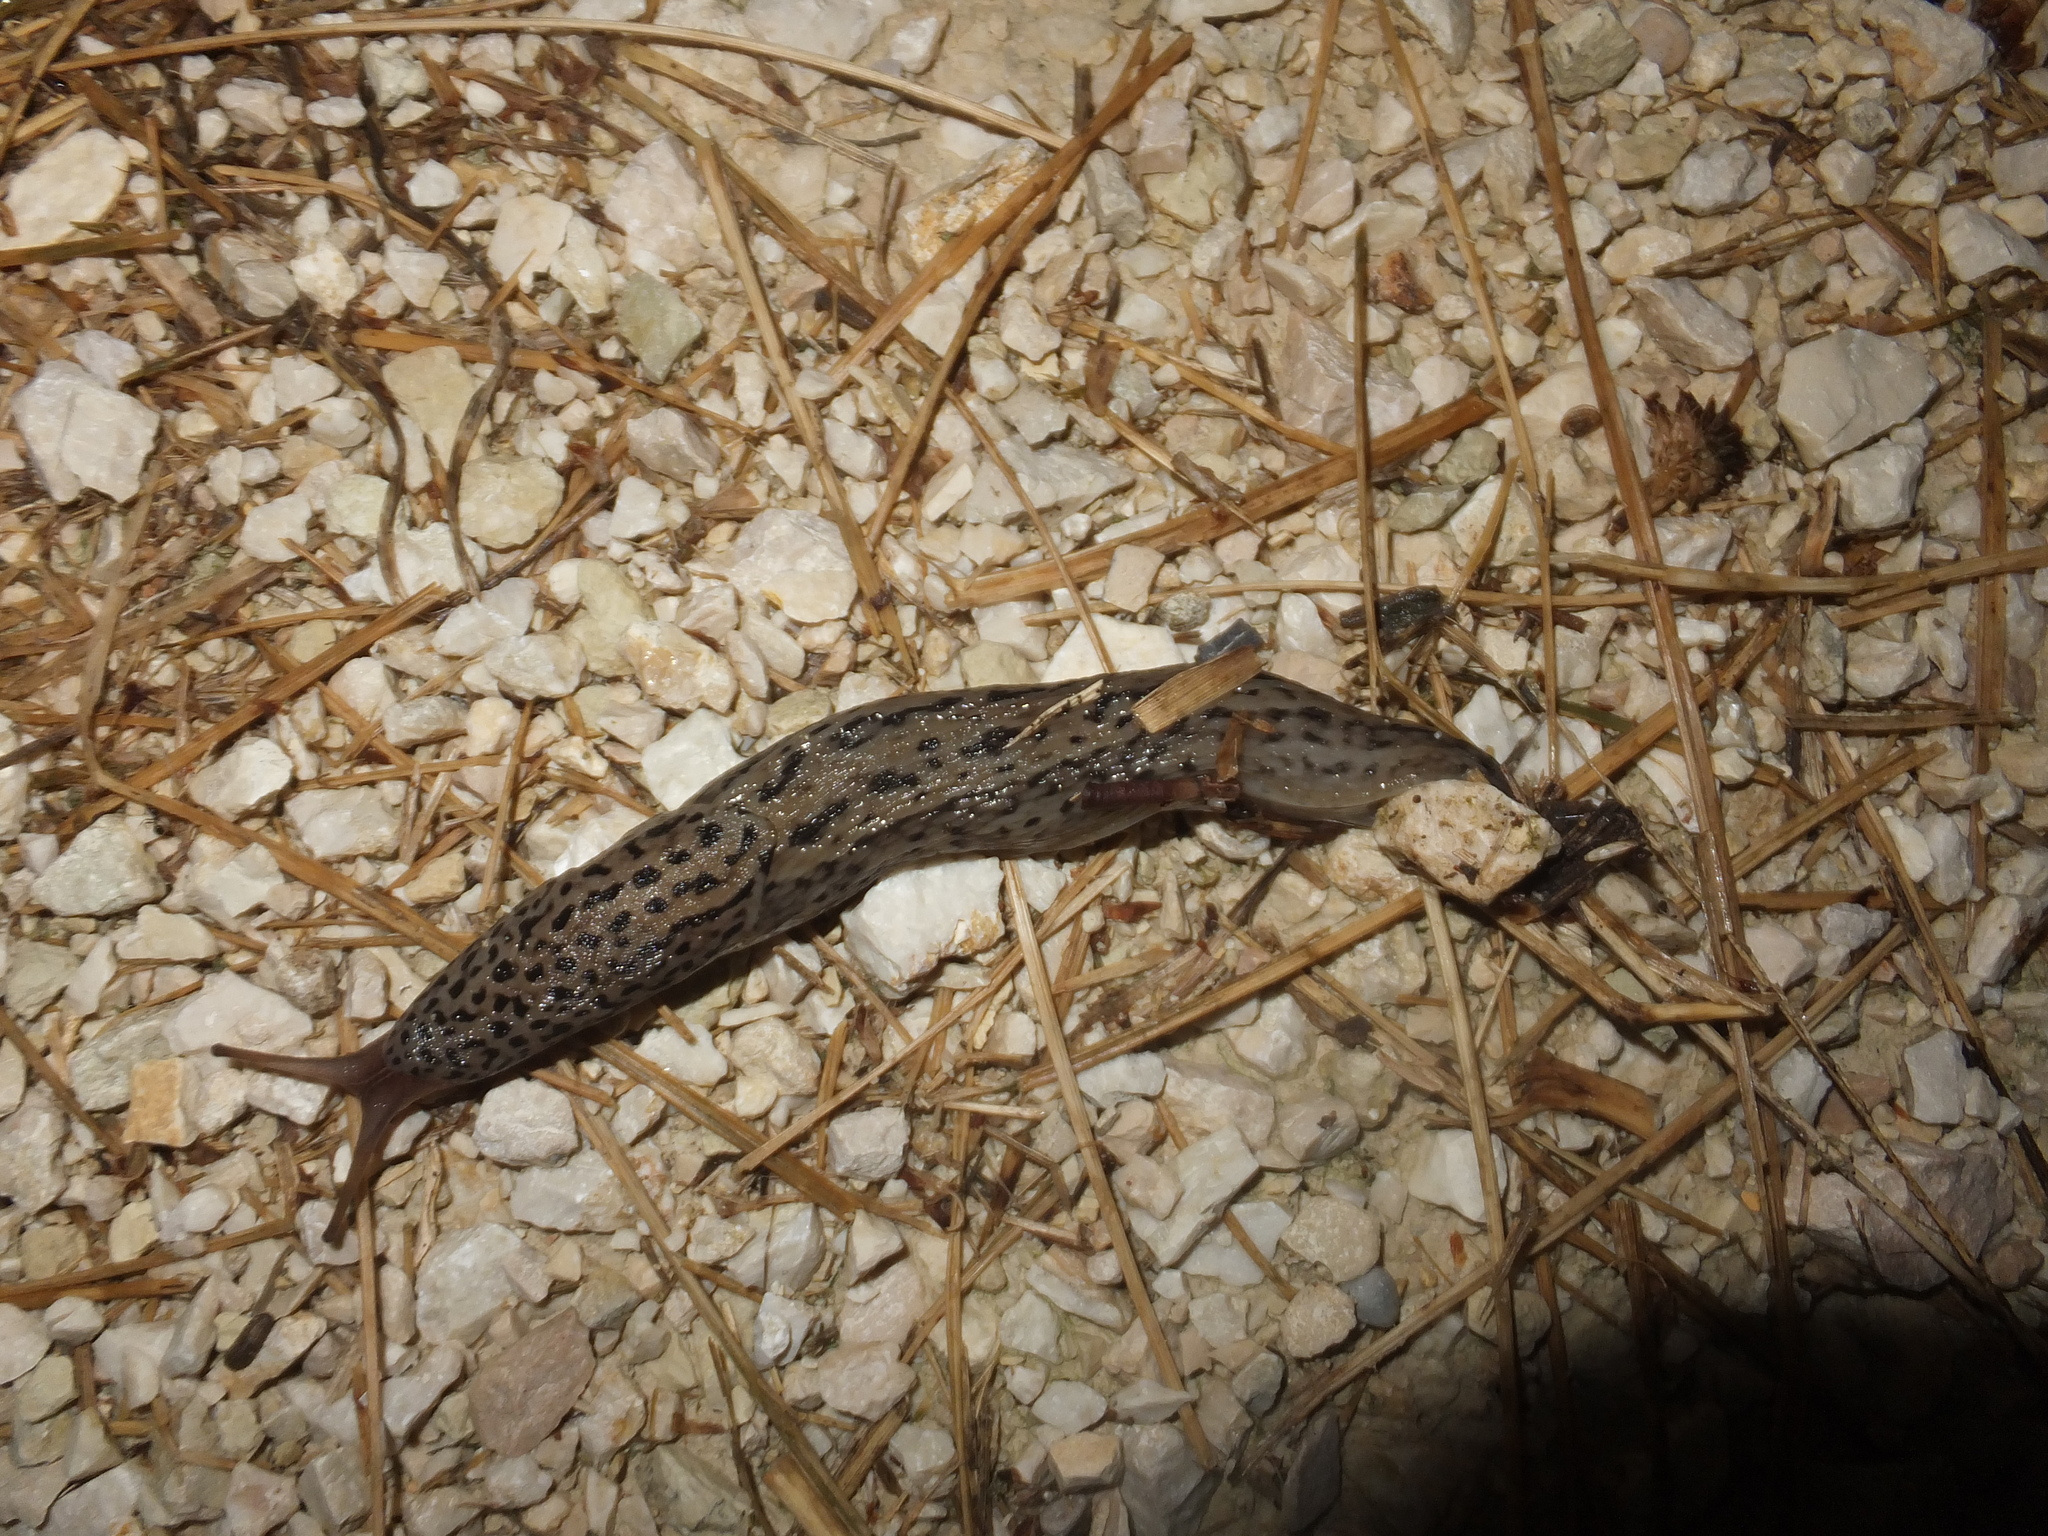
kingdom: Animalia
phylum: Mollusca
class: Gastropoda
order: Stylommatophora
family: Limacidae
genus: Limax
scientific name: Limax maximus
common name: Great grey slug
